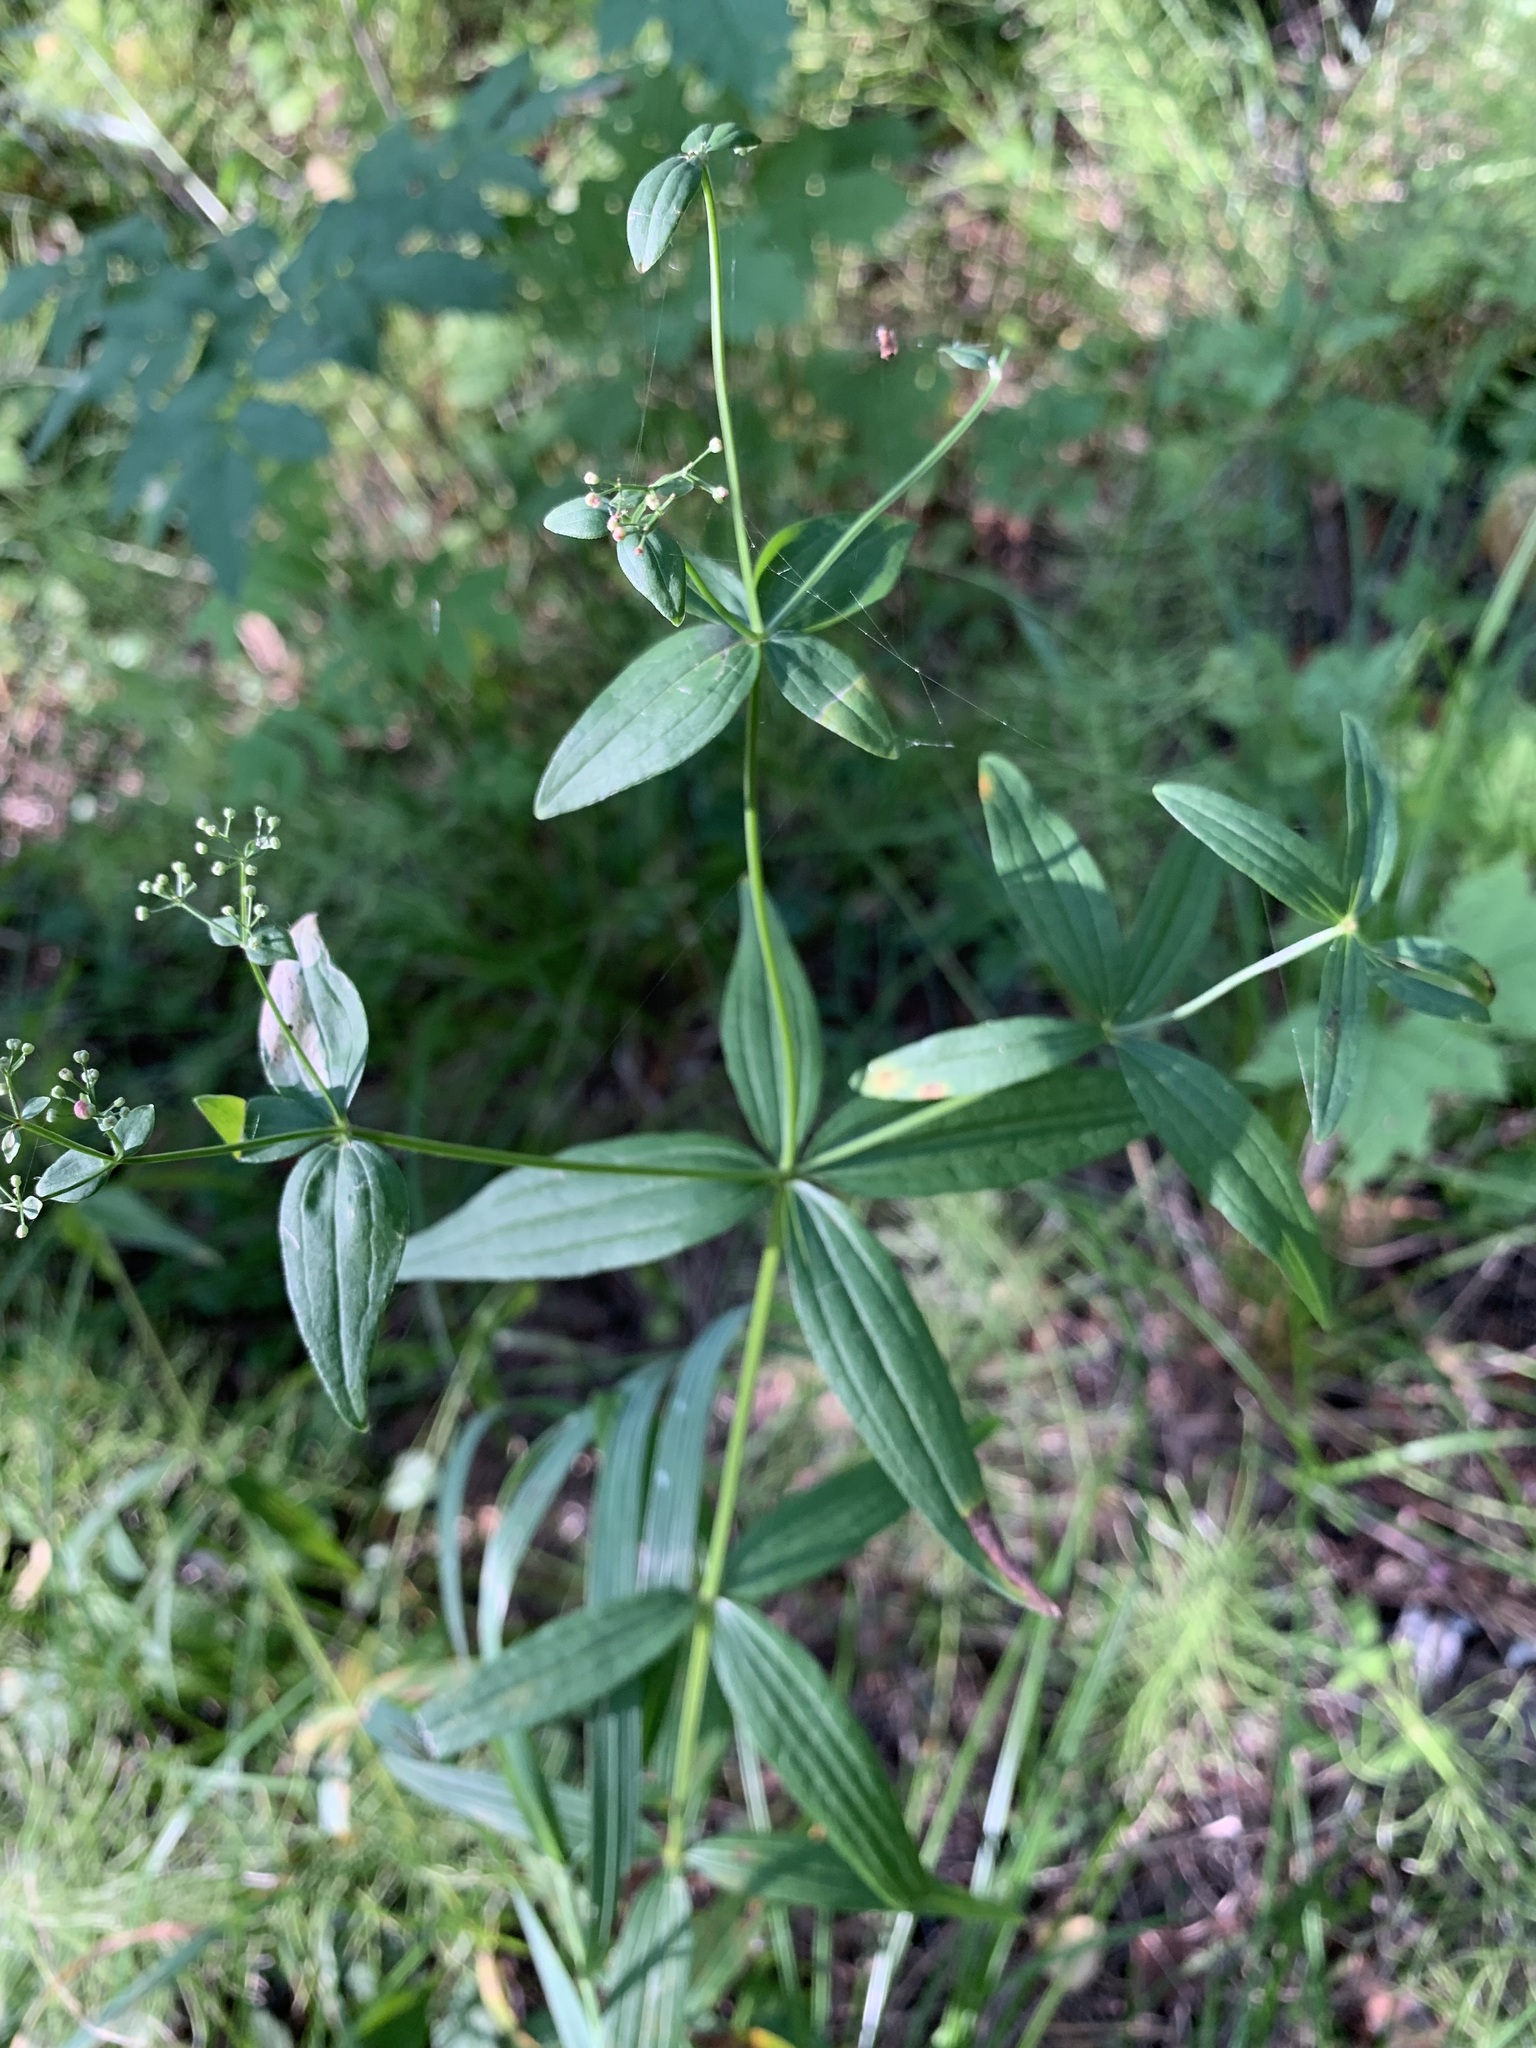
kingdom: Plantae
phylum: Tracheophyta
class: Magnoliopsida
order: Gentianales
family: Rubiaceae
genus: Galium
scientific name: Galium rubioides
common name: European bedstraw
